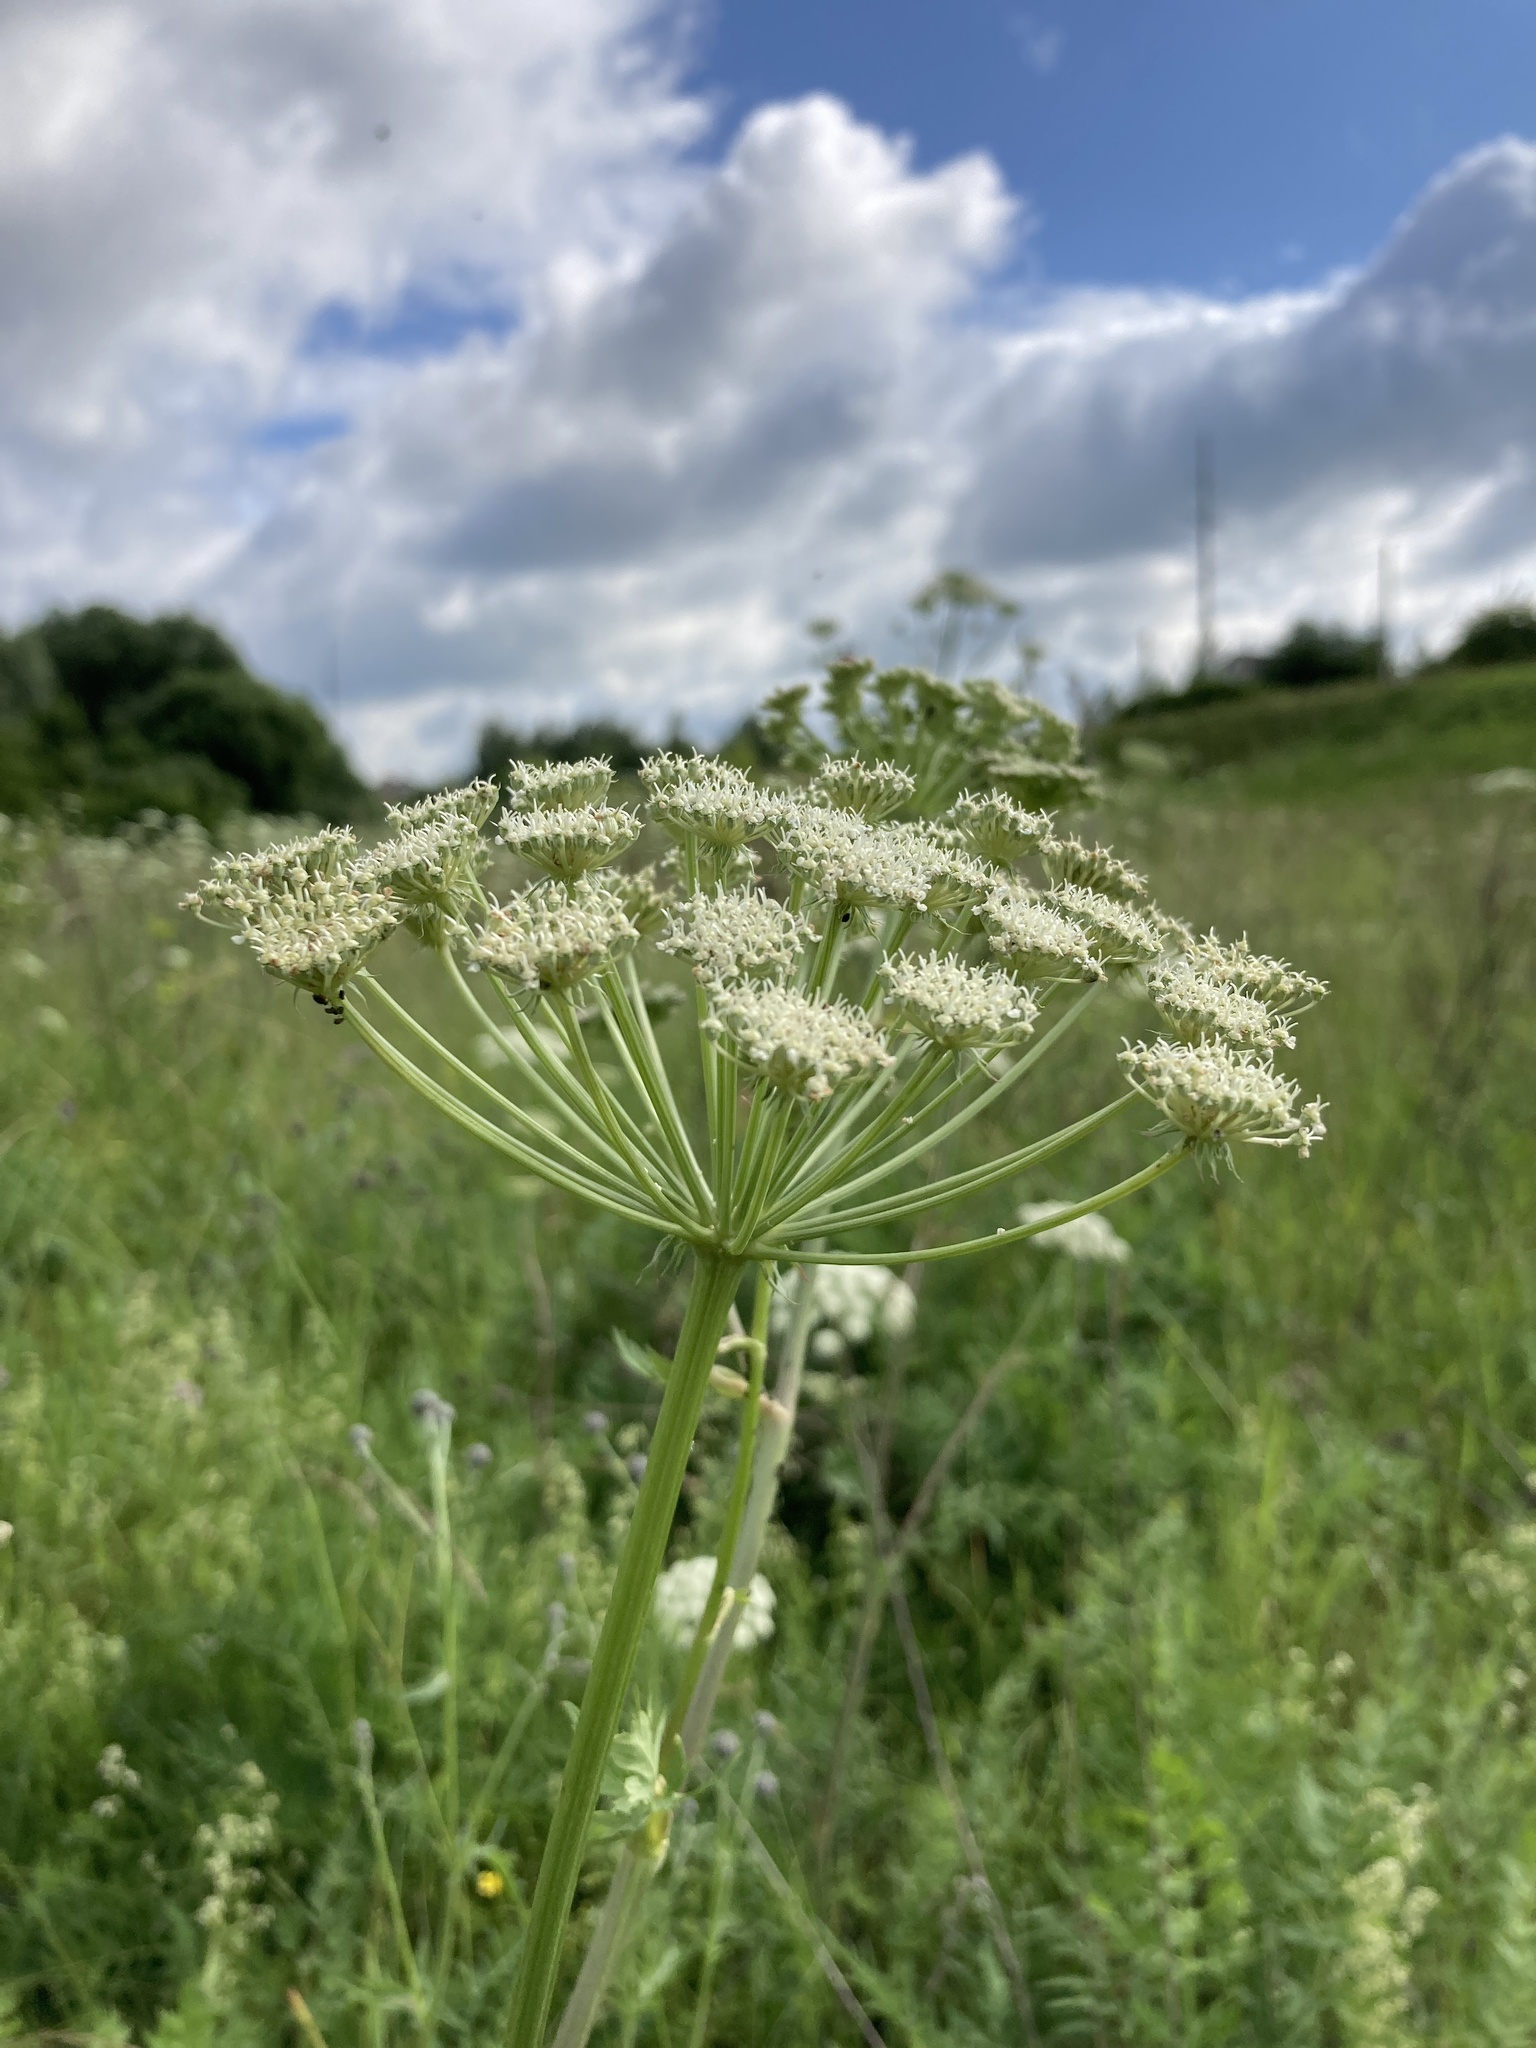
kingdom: Plantae
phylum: Tracheophyta
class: Magnoliopsida
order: Apiales
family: Apiaceae
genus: Seseli
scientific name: Seseli libanotis
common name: Mooncarrot
